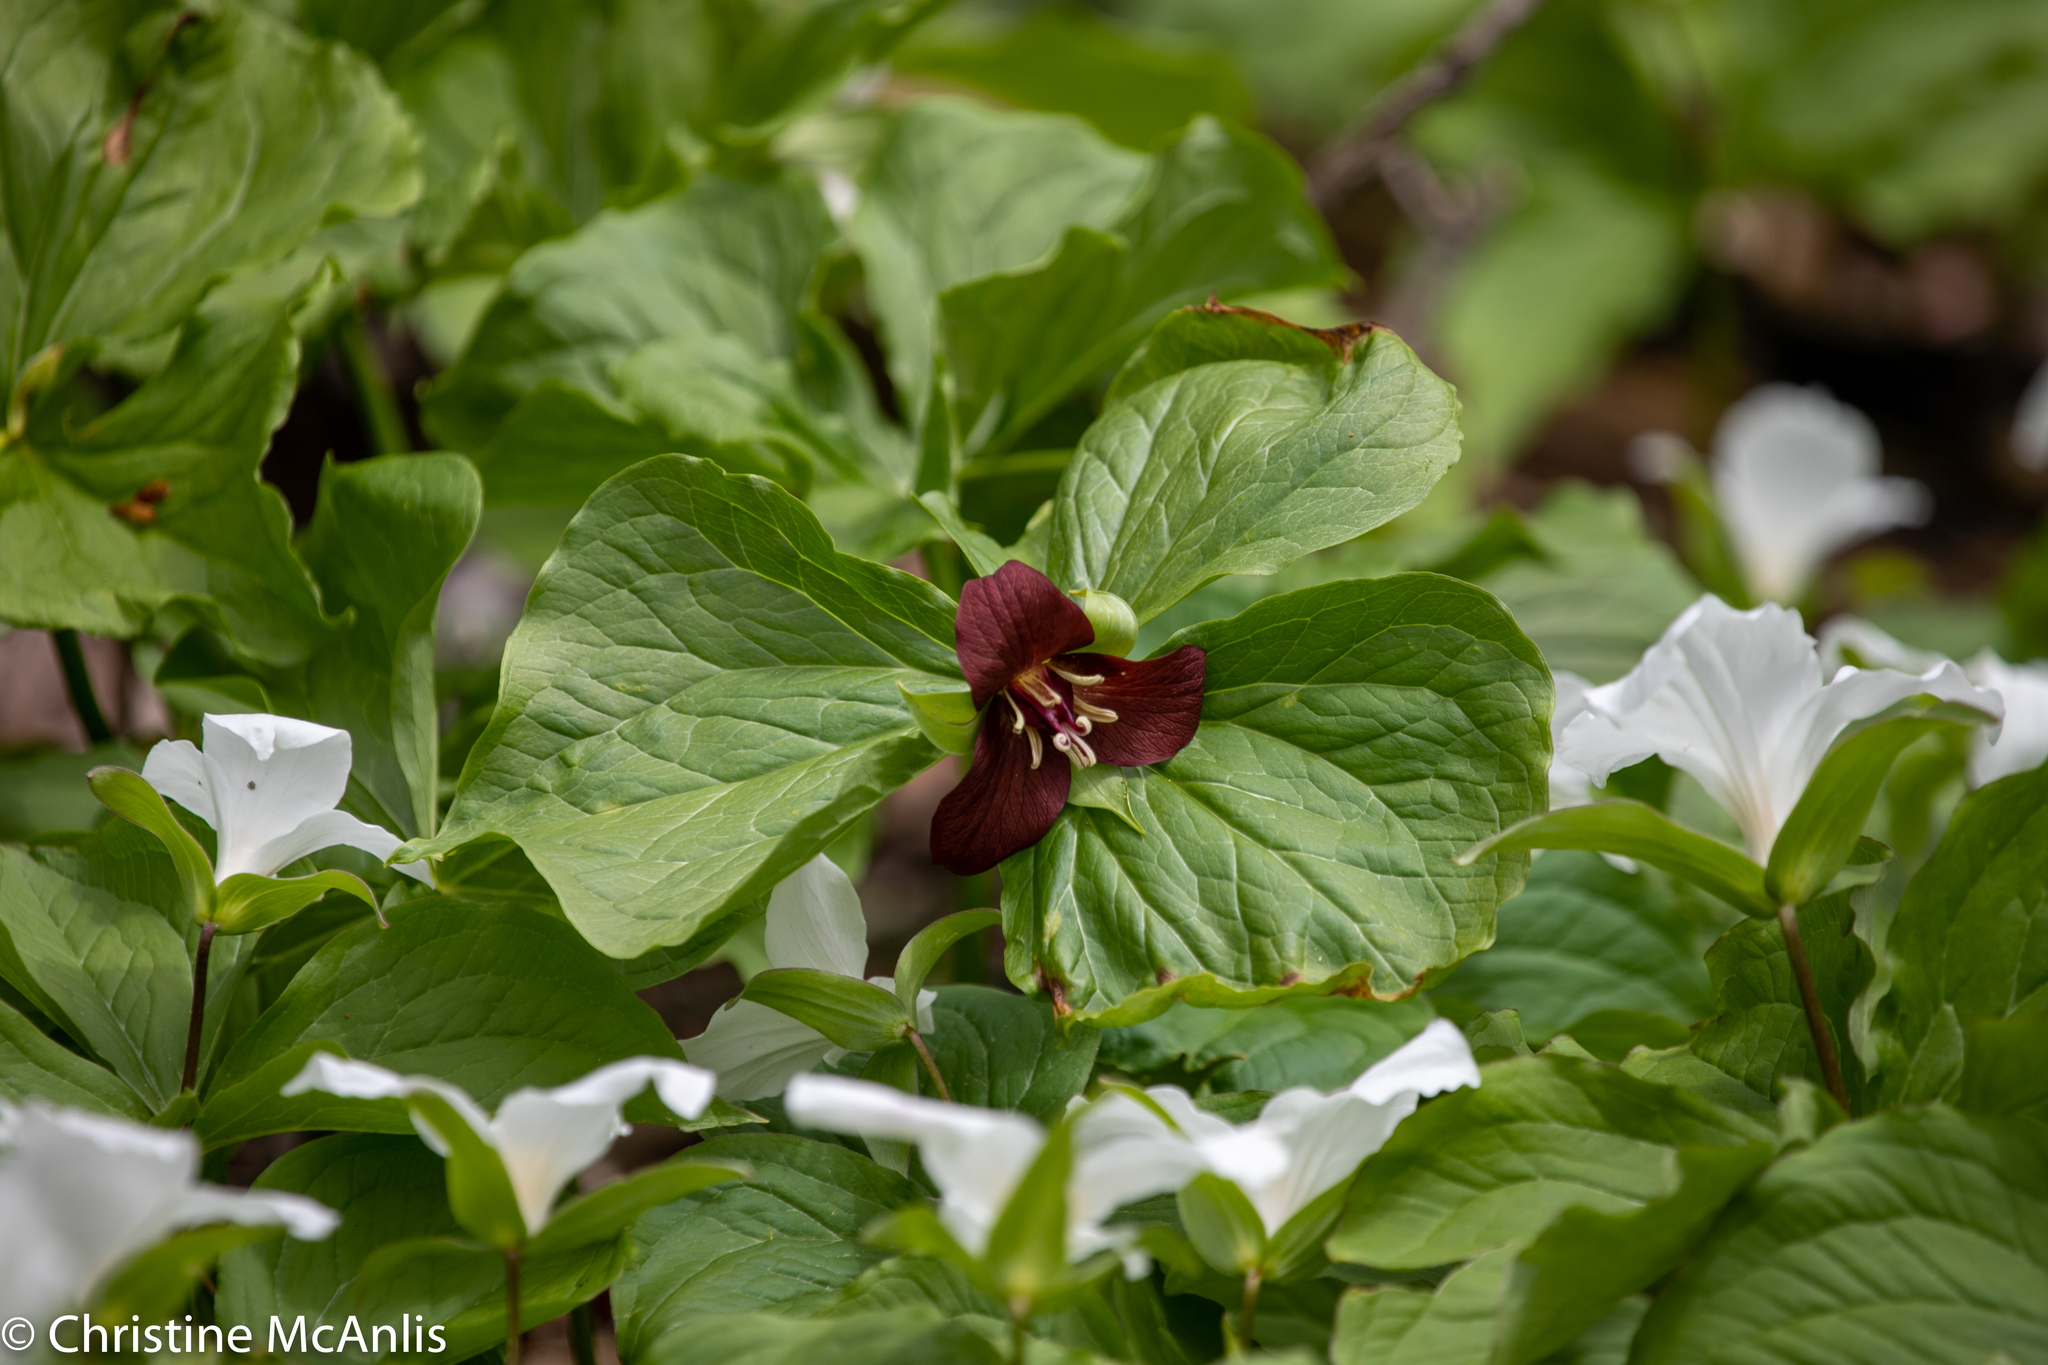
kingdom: Plantae
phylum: Tracheophyta
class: Liliopsida
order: Liliales
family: Melanthiaceae
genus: Trillium
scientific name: Trillium erectum
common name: Purple trillium
